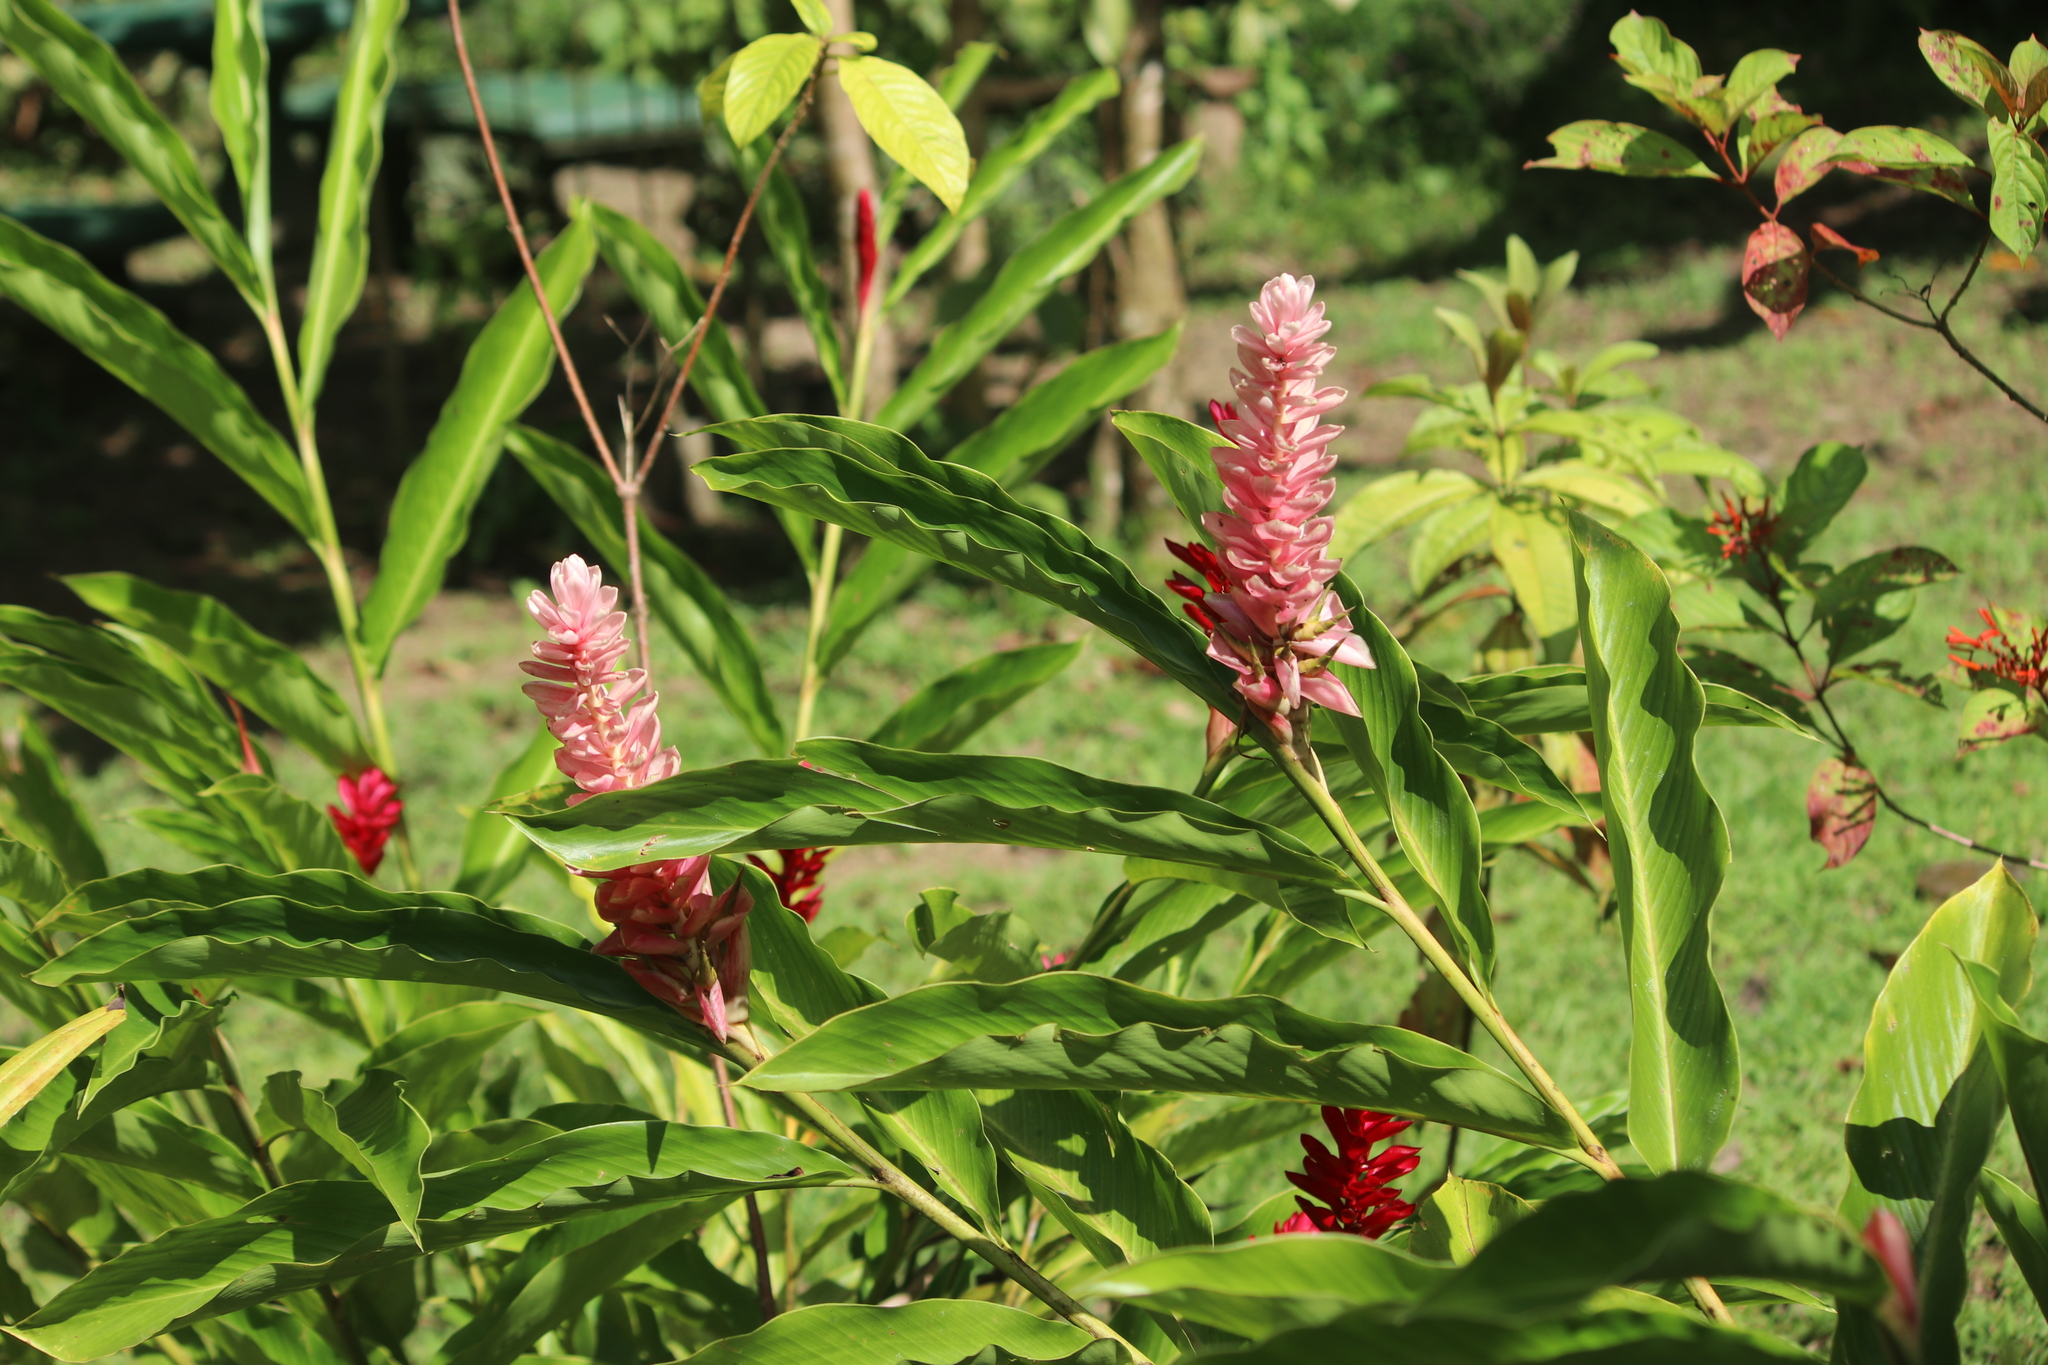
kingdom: Plantae
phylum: Tracheophyta
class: Liliopsida
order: Zingiberales
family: Zingiberaceae
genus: Alpinia
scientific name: Alpinia purpurata
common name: Red ginger
